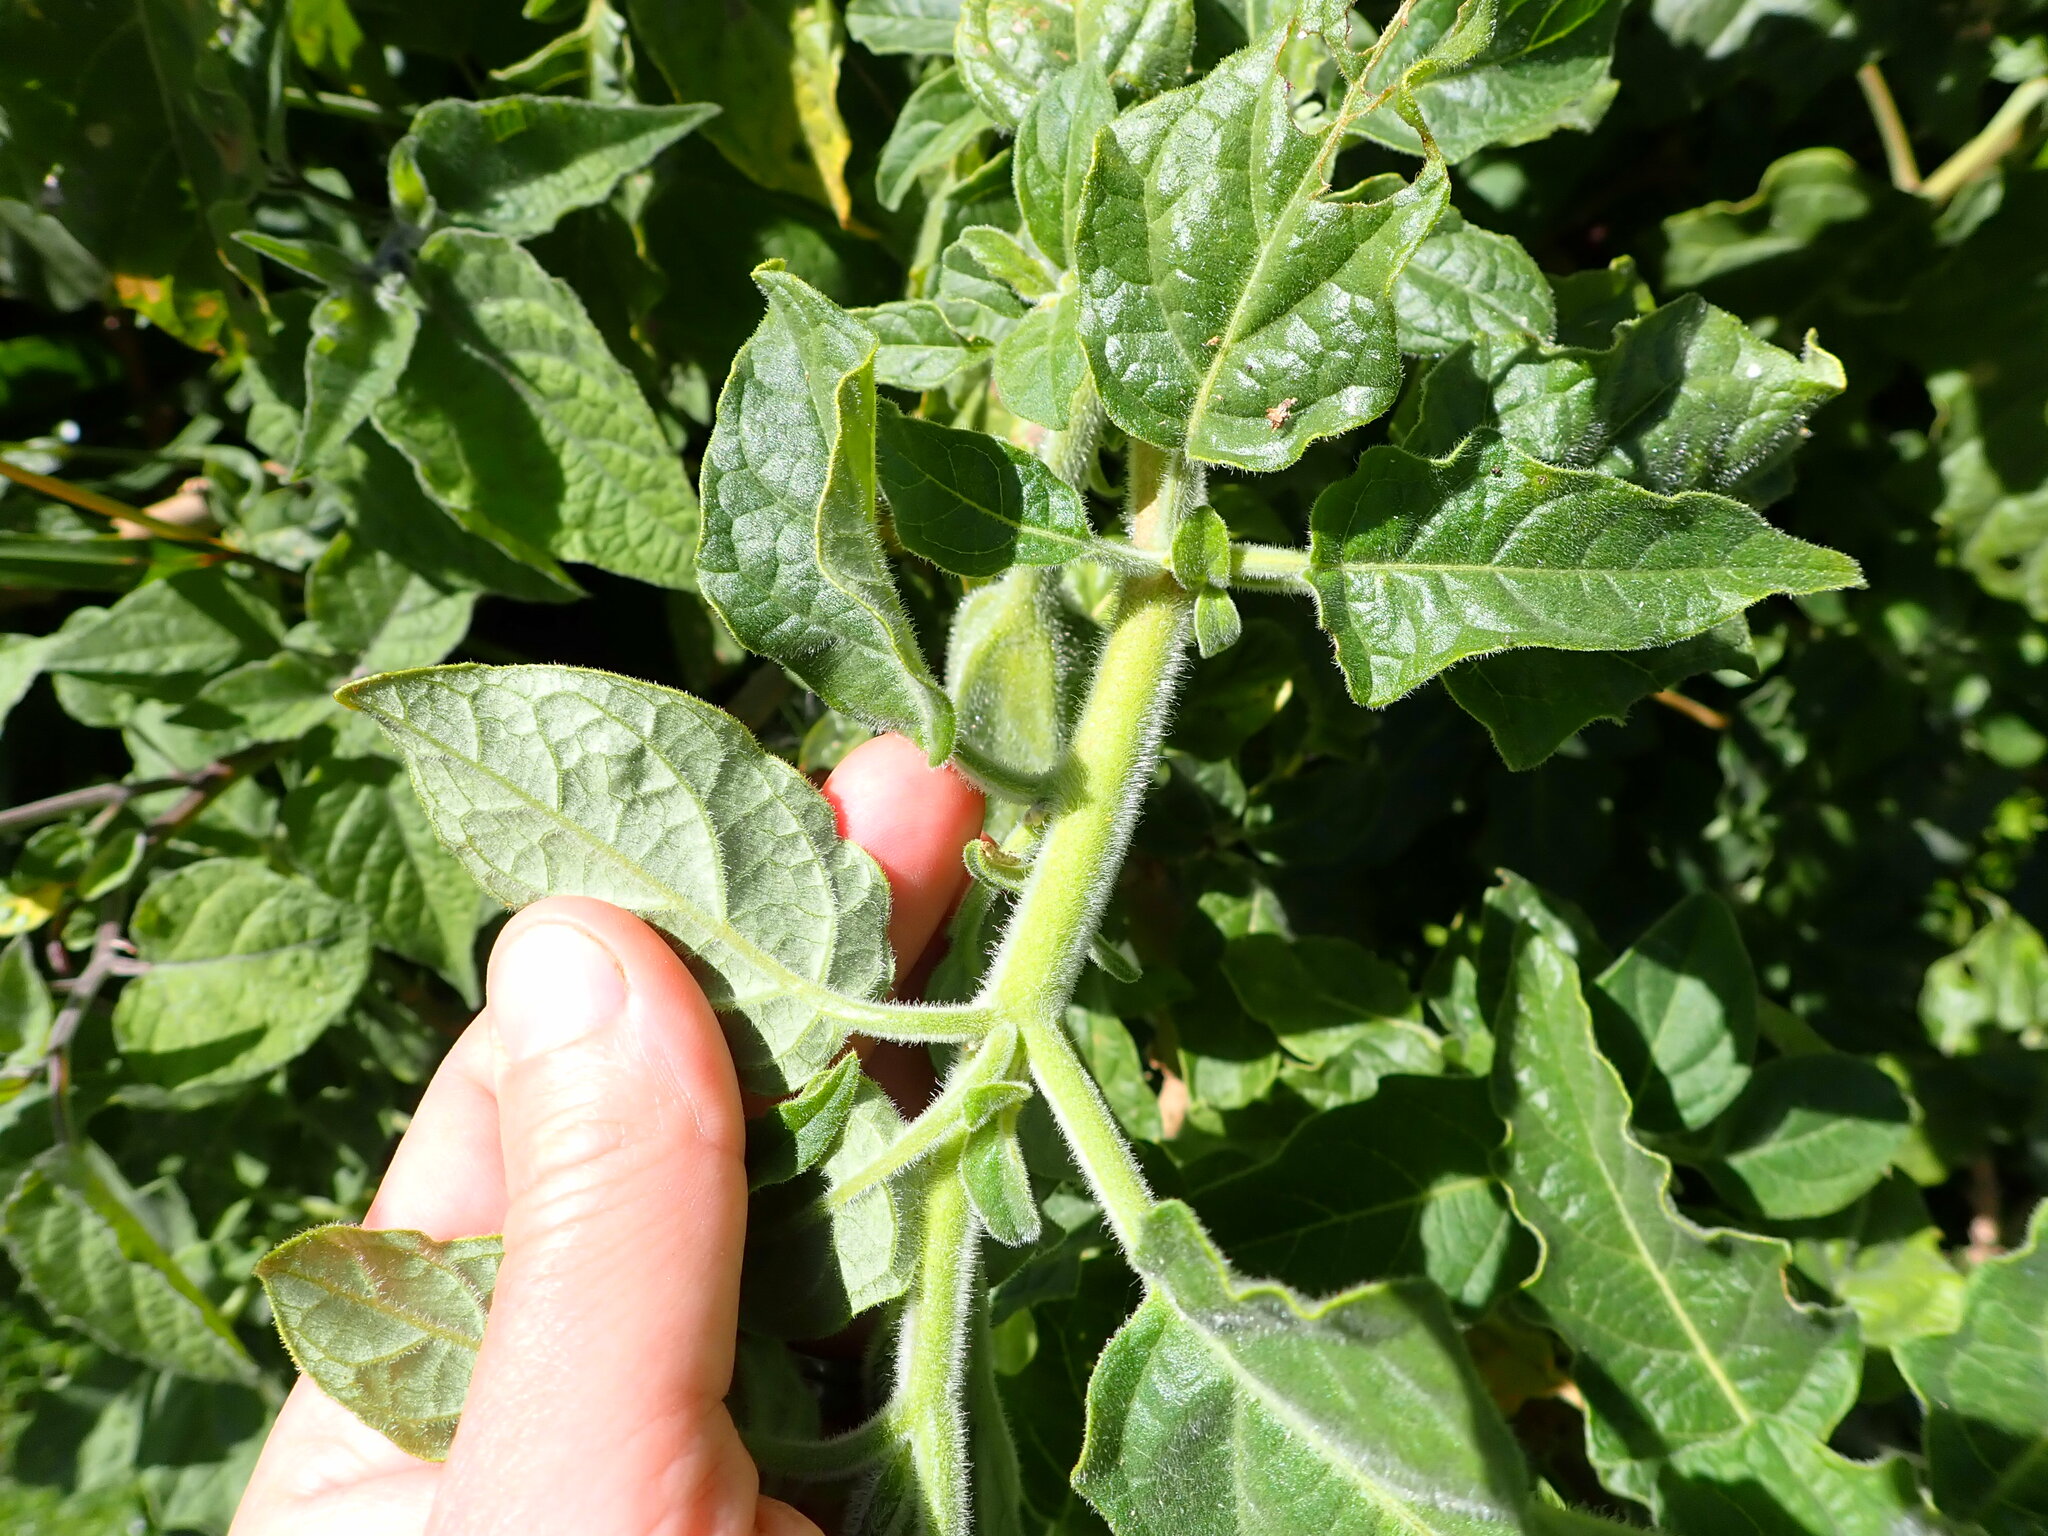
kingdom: Plantae
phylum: Tracheophyta
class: Magnoliopsida
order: Solanales
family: Solanaceae
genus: Physalis
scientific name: Physalis peruviana
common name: Cape-gooseberry
